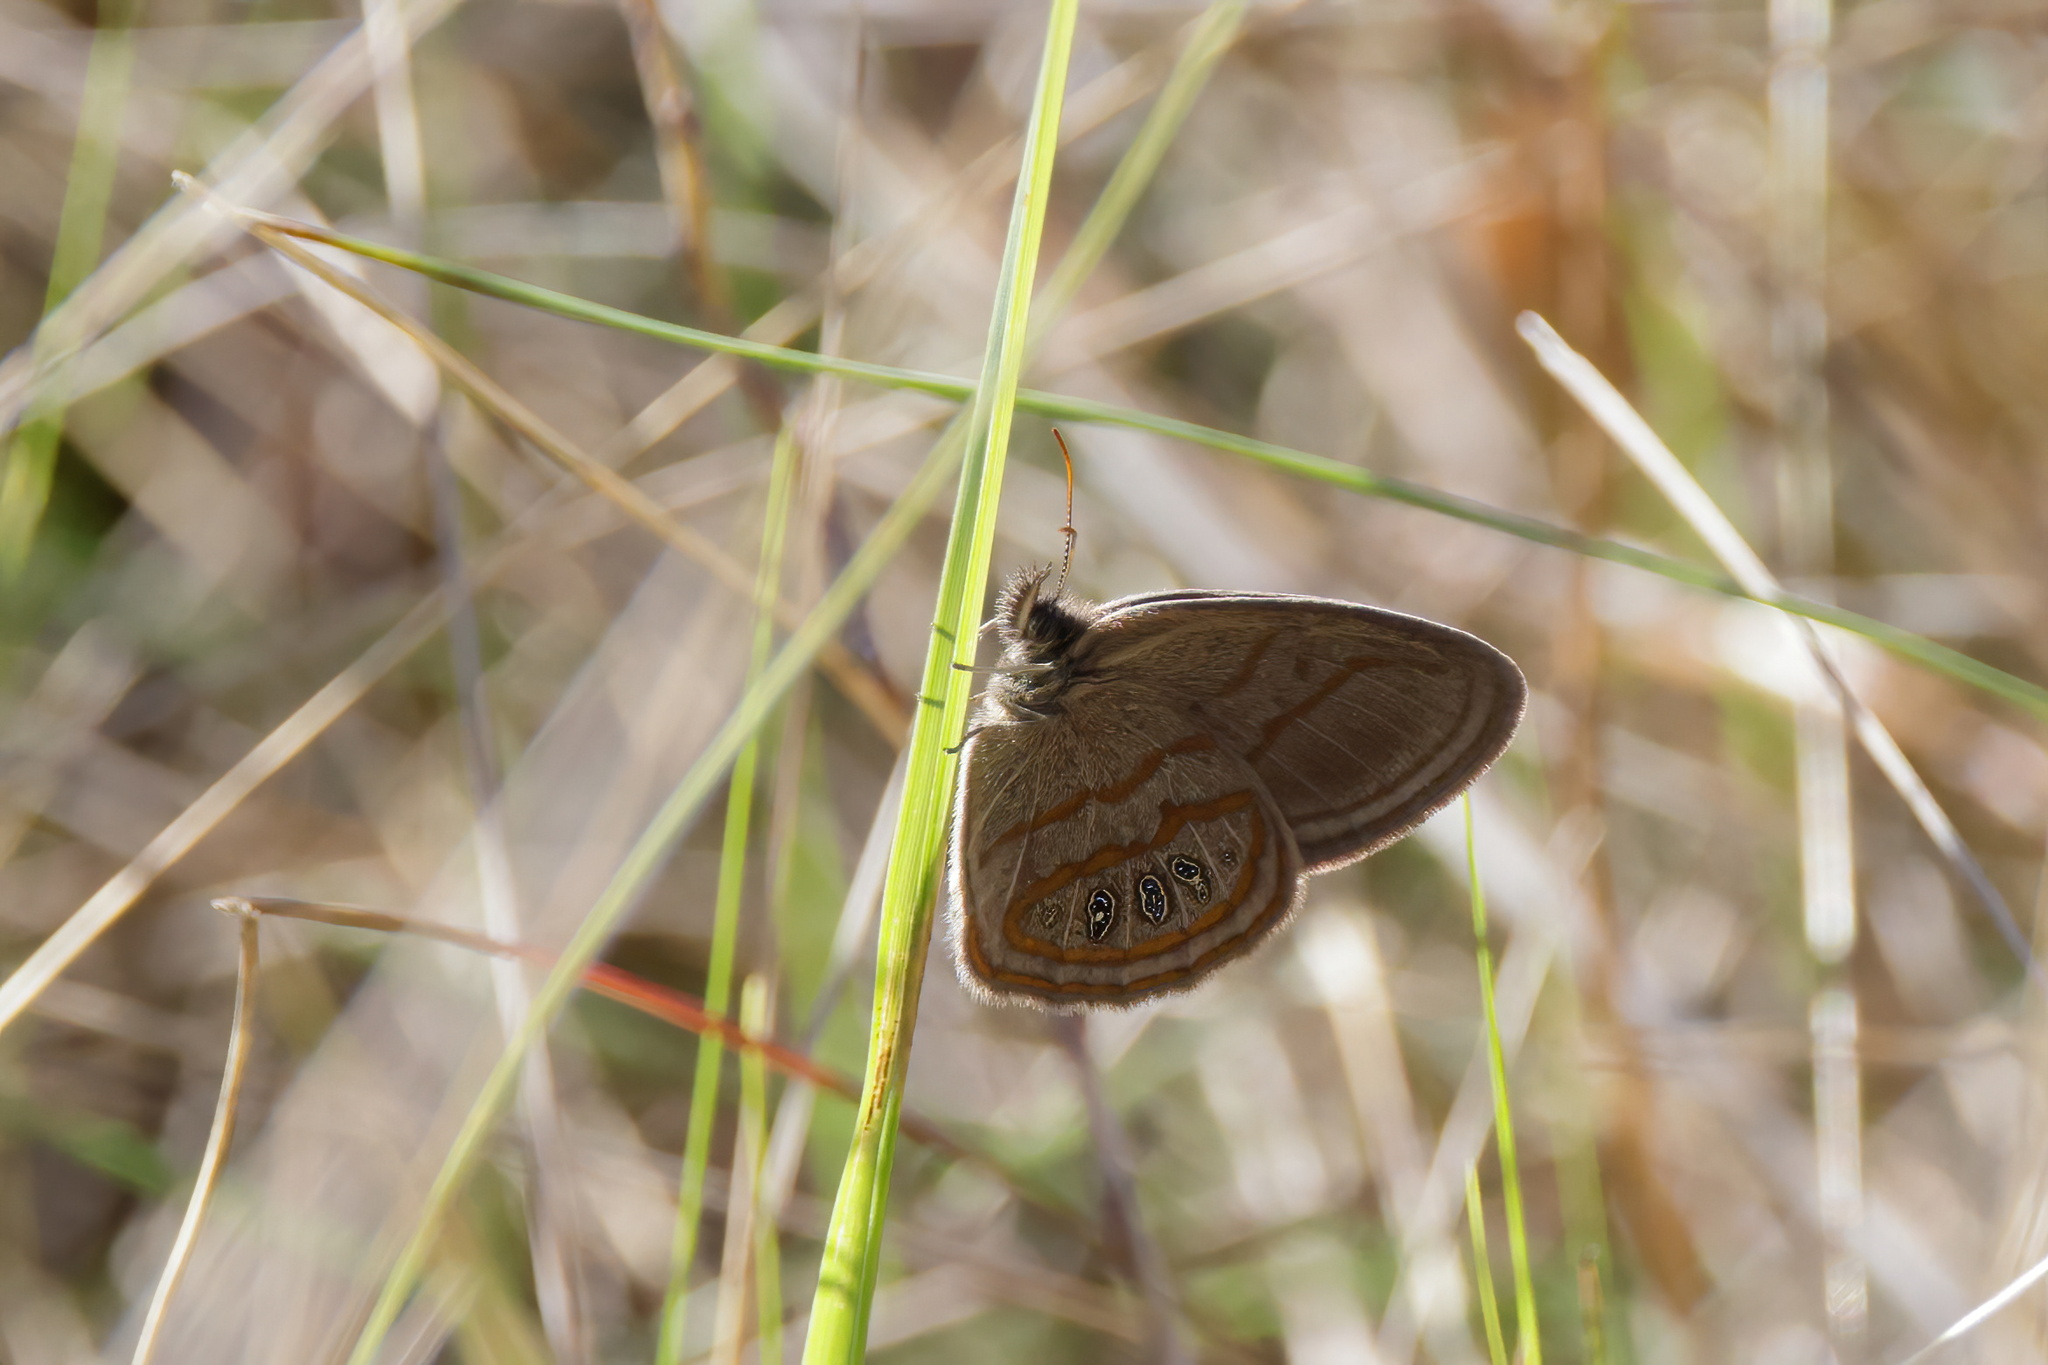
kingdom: Animalia
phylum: Arthropoda
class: Insecta
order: Lepidoptera
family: Nymphalidae
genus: Euptychia
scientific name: Euptychia phocion
